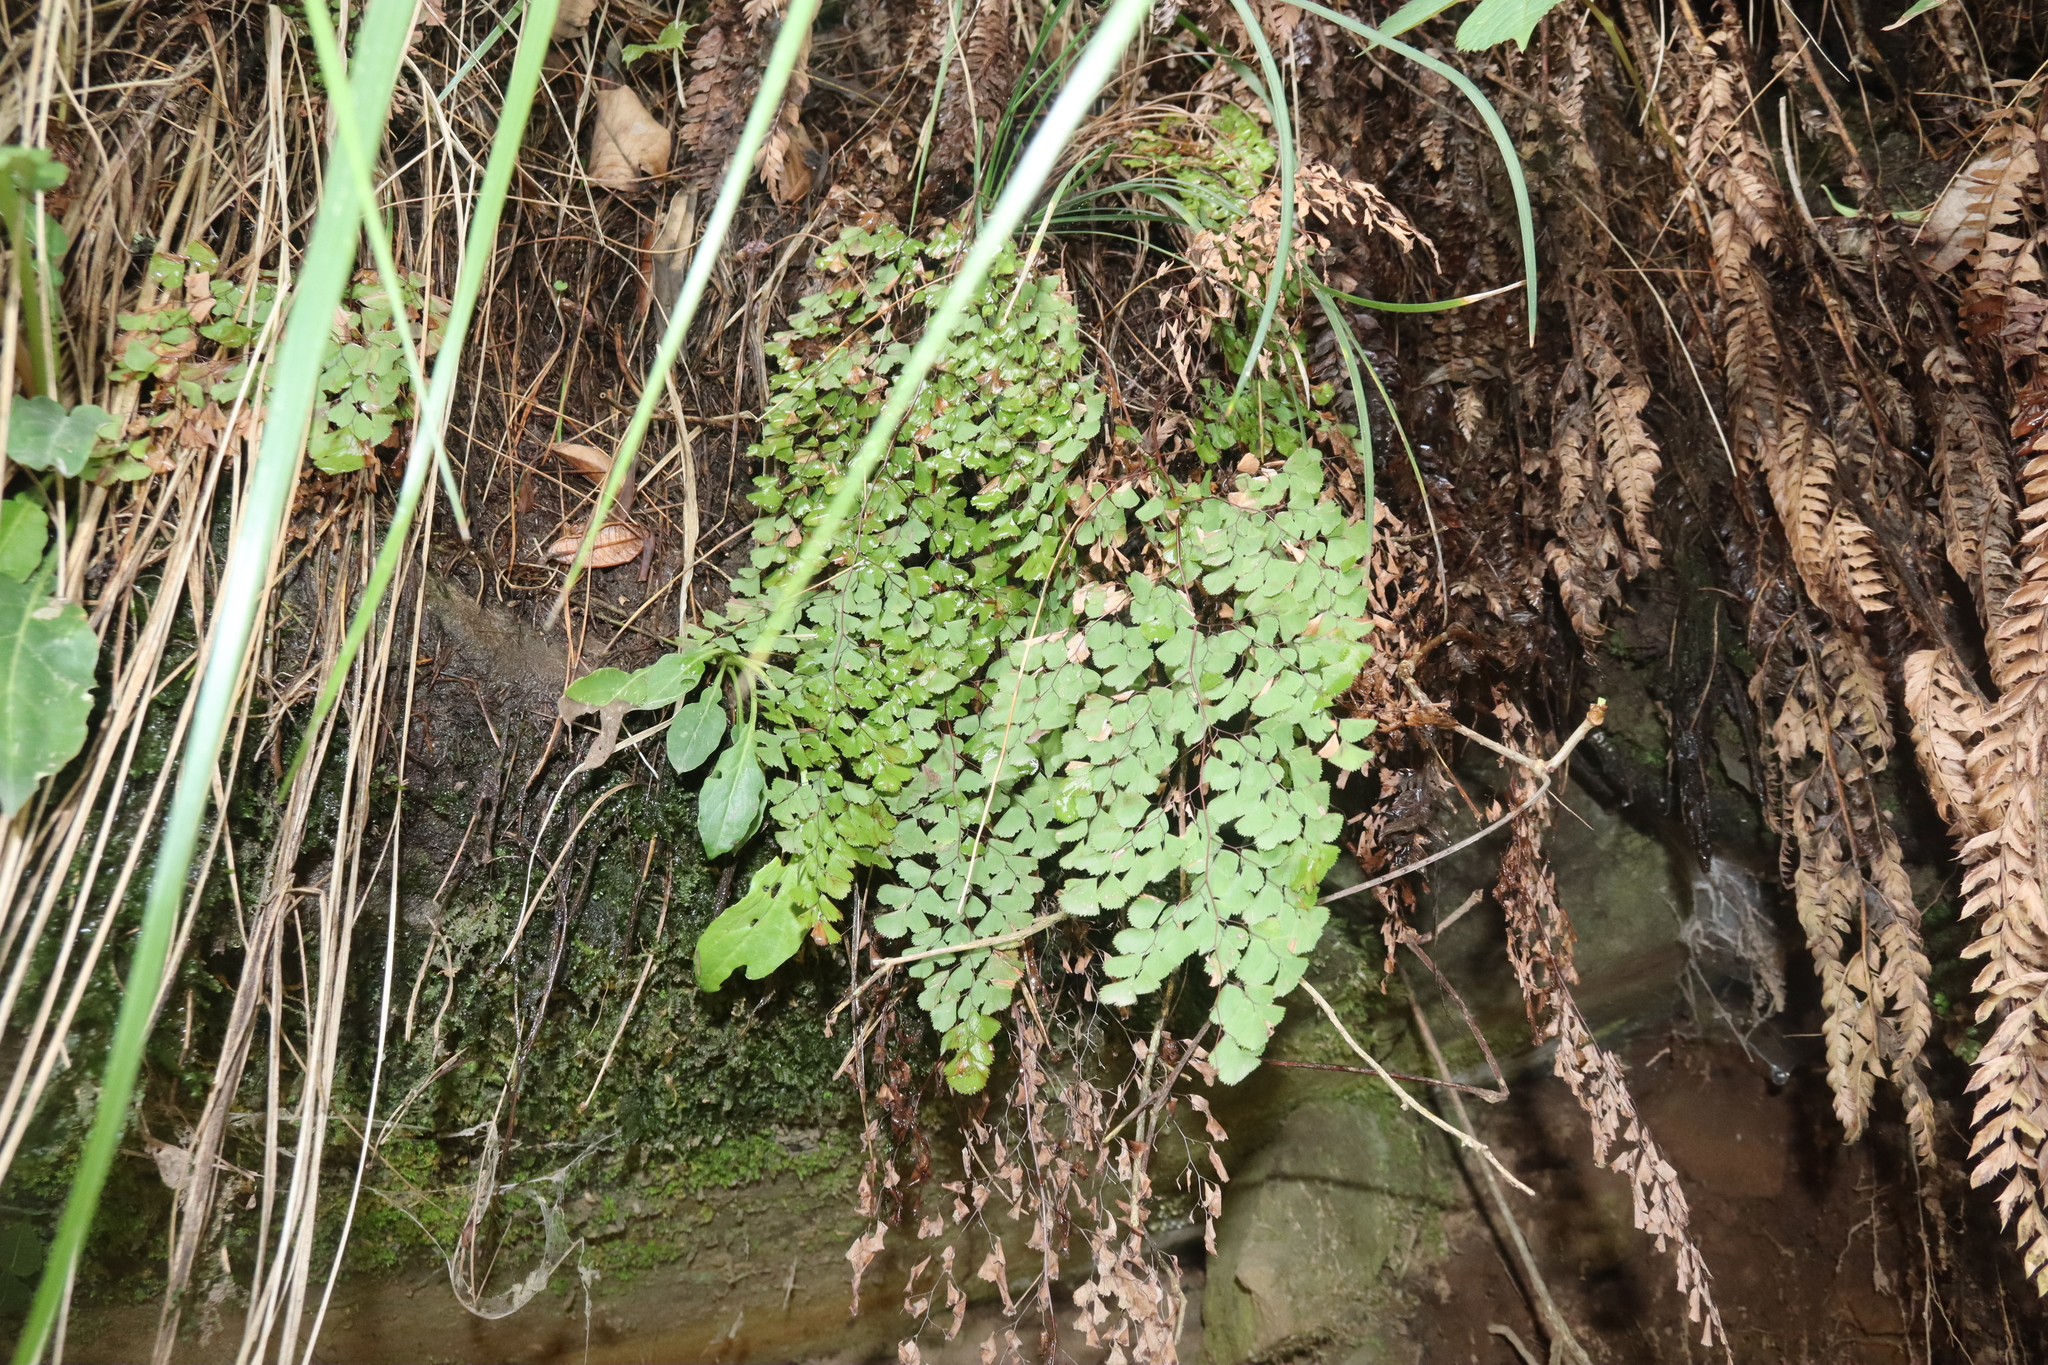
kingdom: Plantae
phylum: Tracheophyta
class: Polypodiopsida
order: Polypodiales
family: Pteridaceae
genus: Adiantum
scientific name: Adiantum tibeticum
